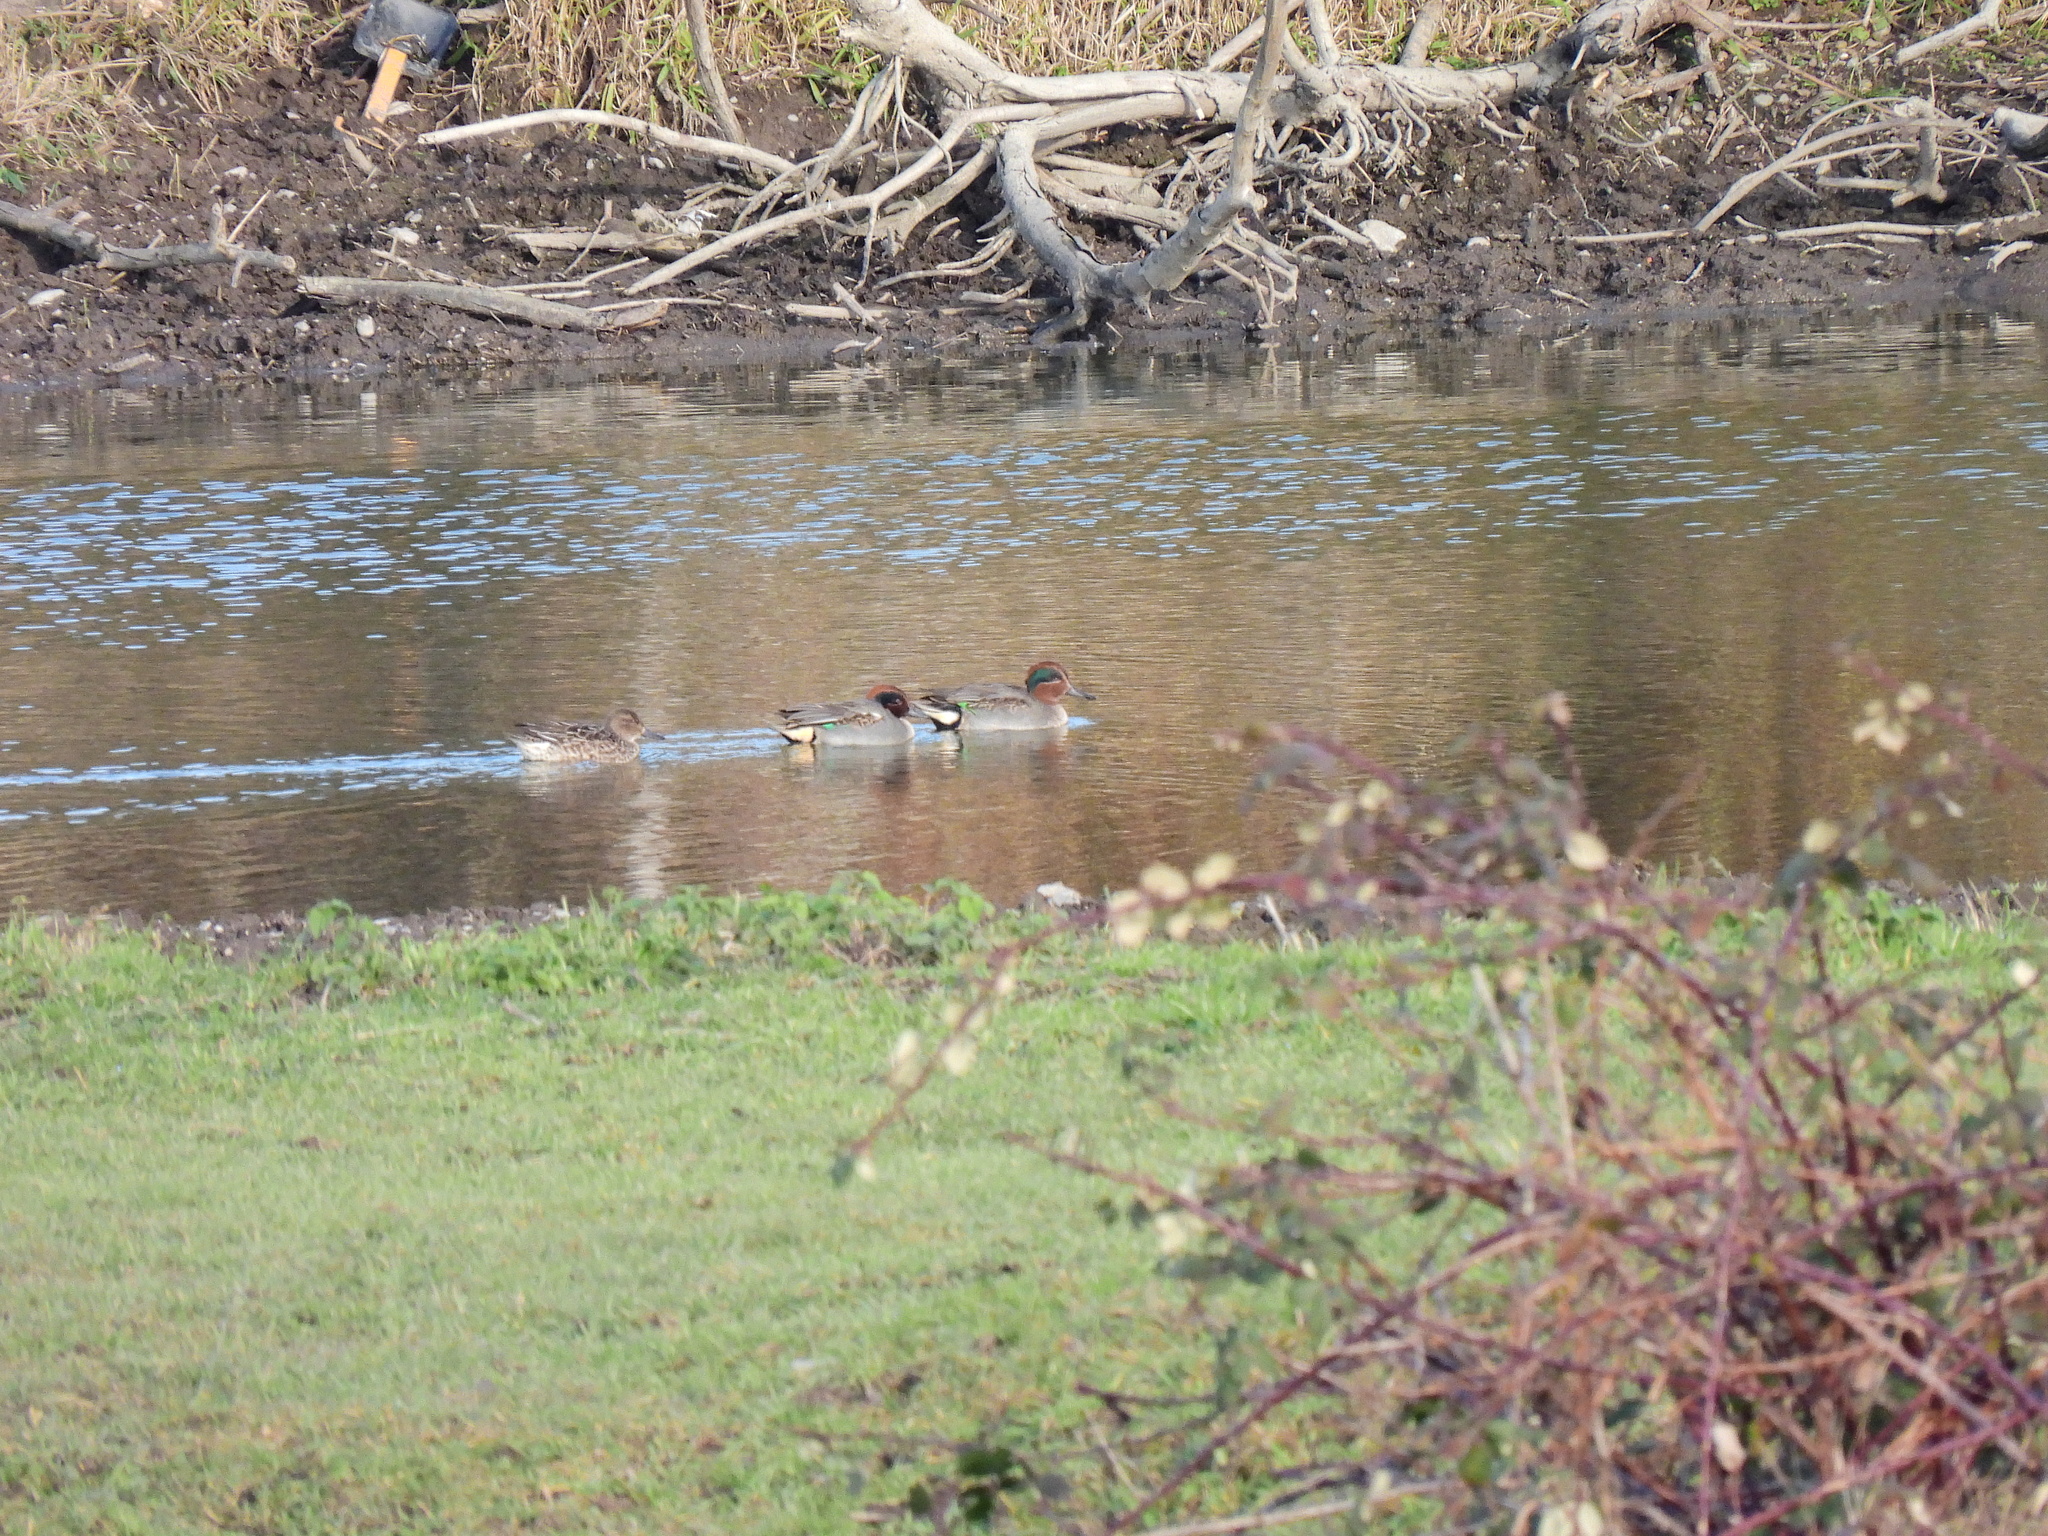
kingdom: Animalia
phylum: Chordata
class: Aves
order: Anseriformes
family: Anatidae
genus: Anas
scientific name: Anas crecca
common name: Eurasian teal
